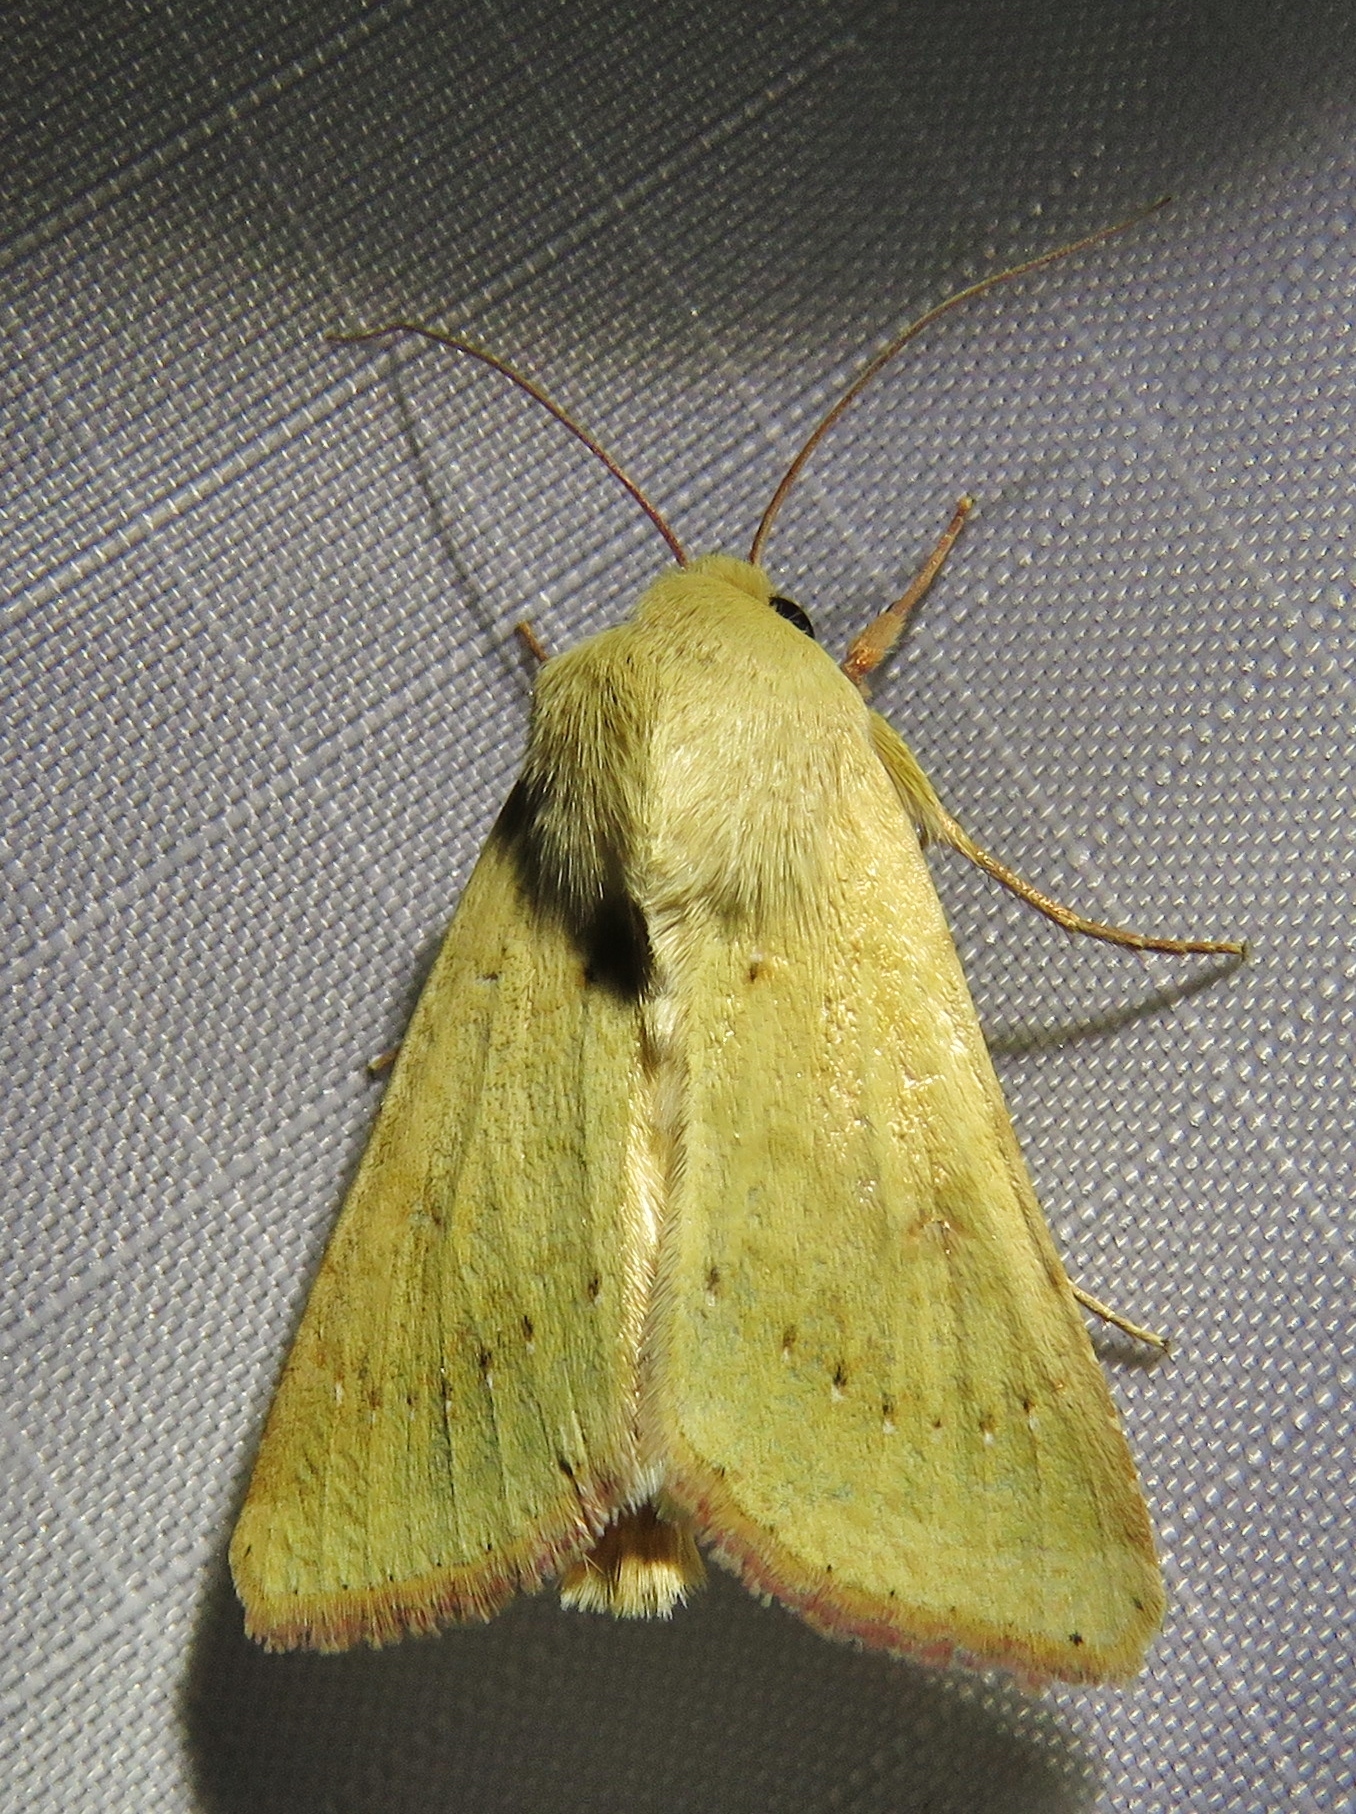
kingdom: Animalia
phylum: Arthropoda
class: Insecta
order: Lepidoptera
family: Noctuidae
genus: Helicoverpa
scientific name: Helicoverpa zea
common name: Bollworm
